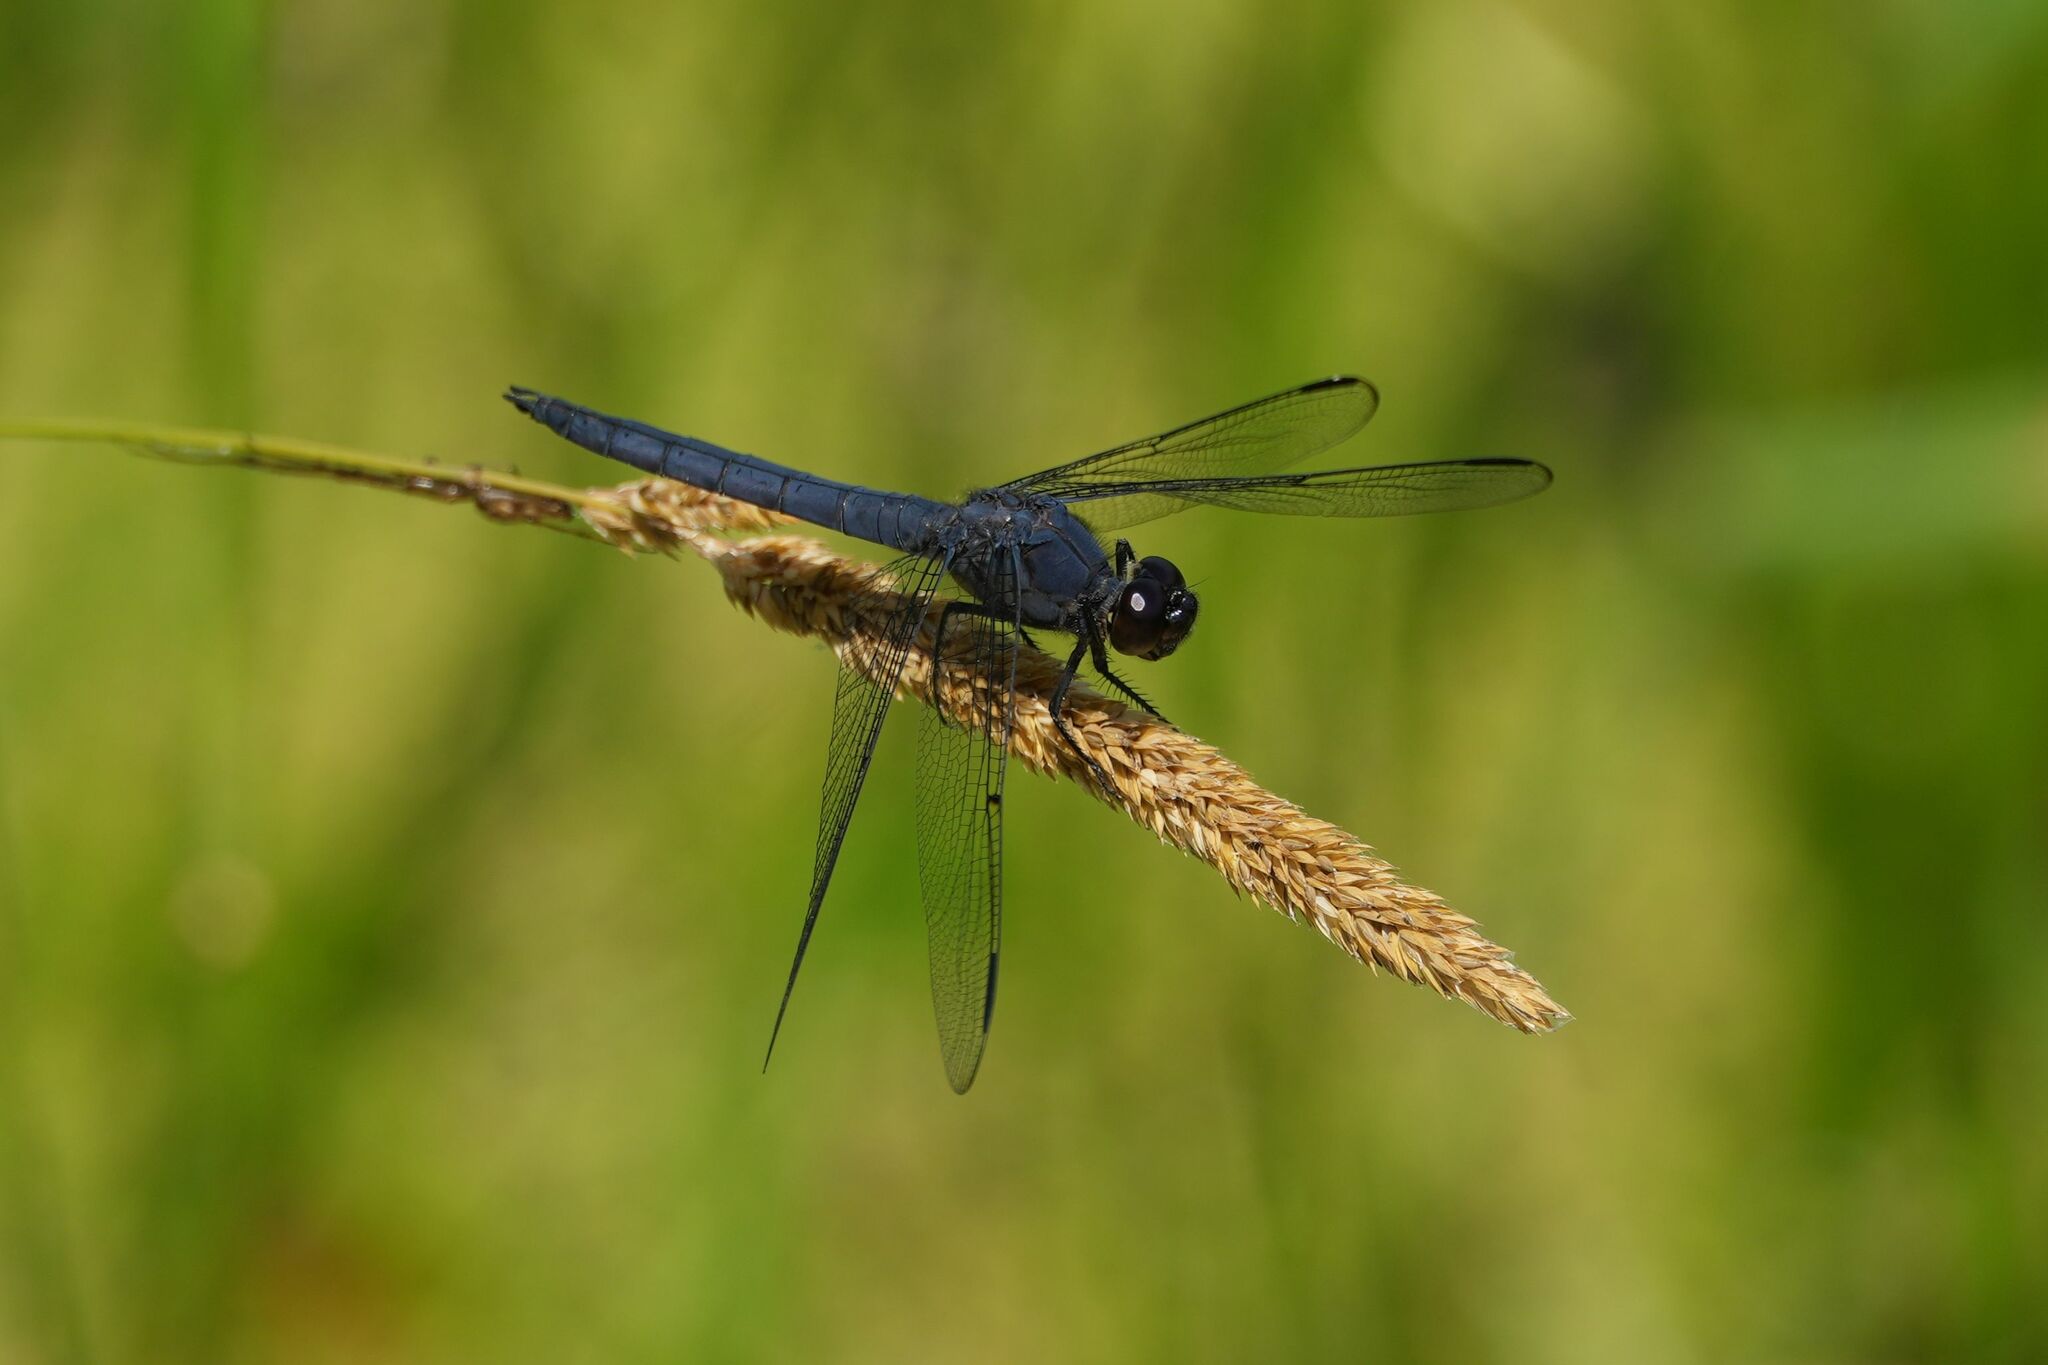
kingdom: Animalia
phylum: Arthropoda
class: Insecta
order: Odonata
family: Libellulidae
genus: Libellula
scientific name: Libellula incesta
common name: Slaty skimmer
